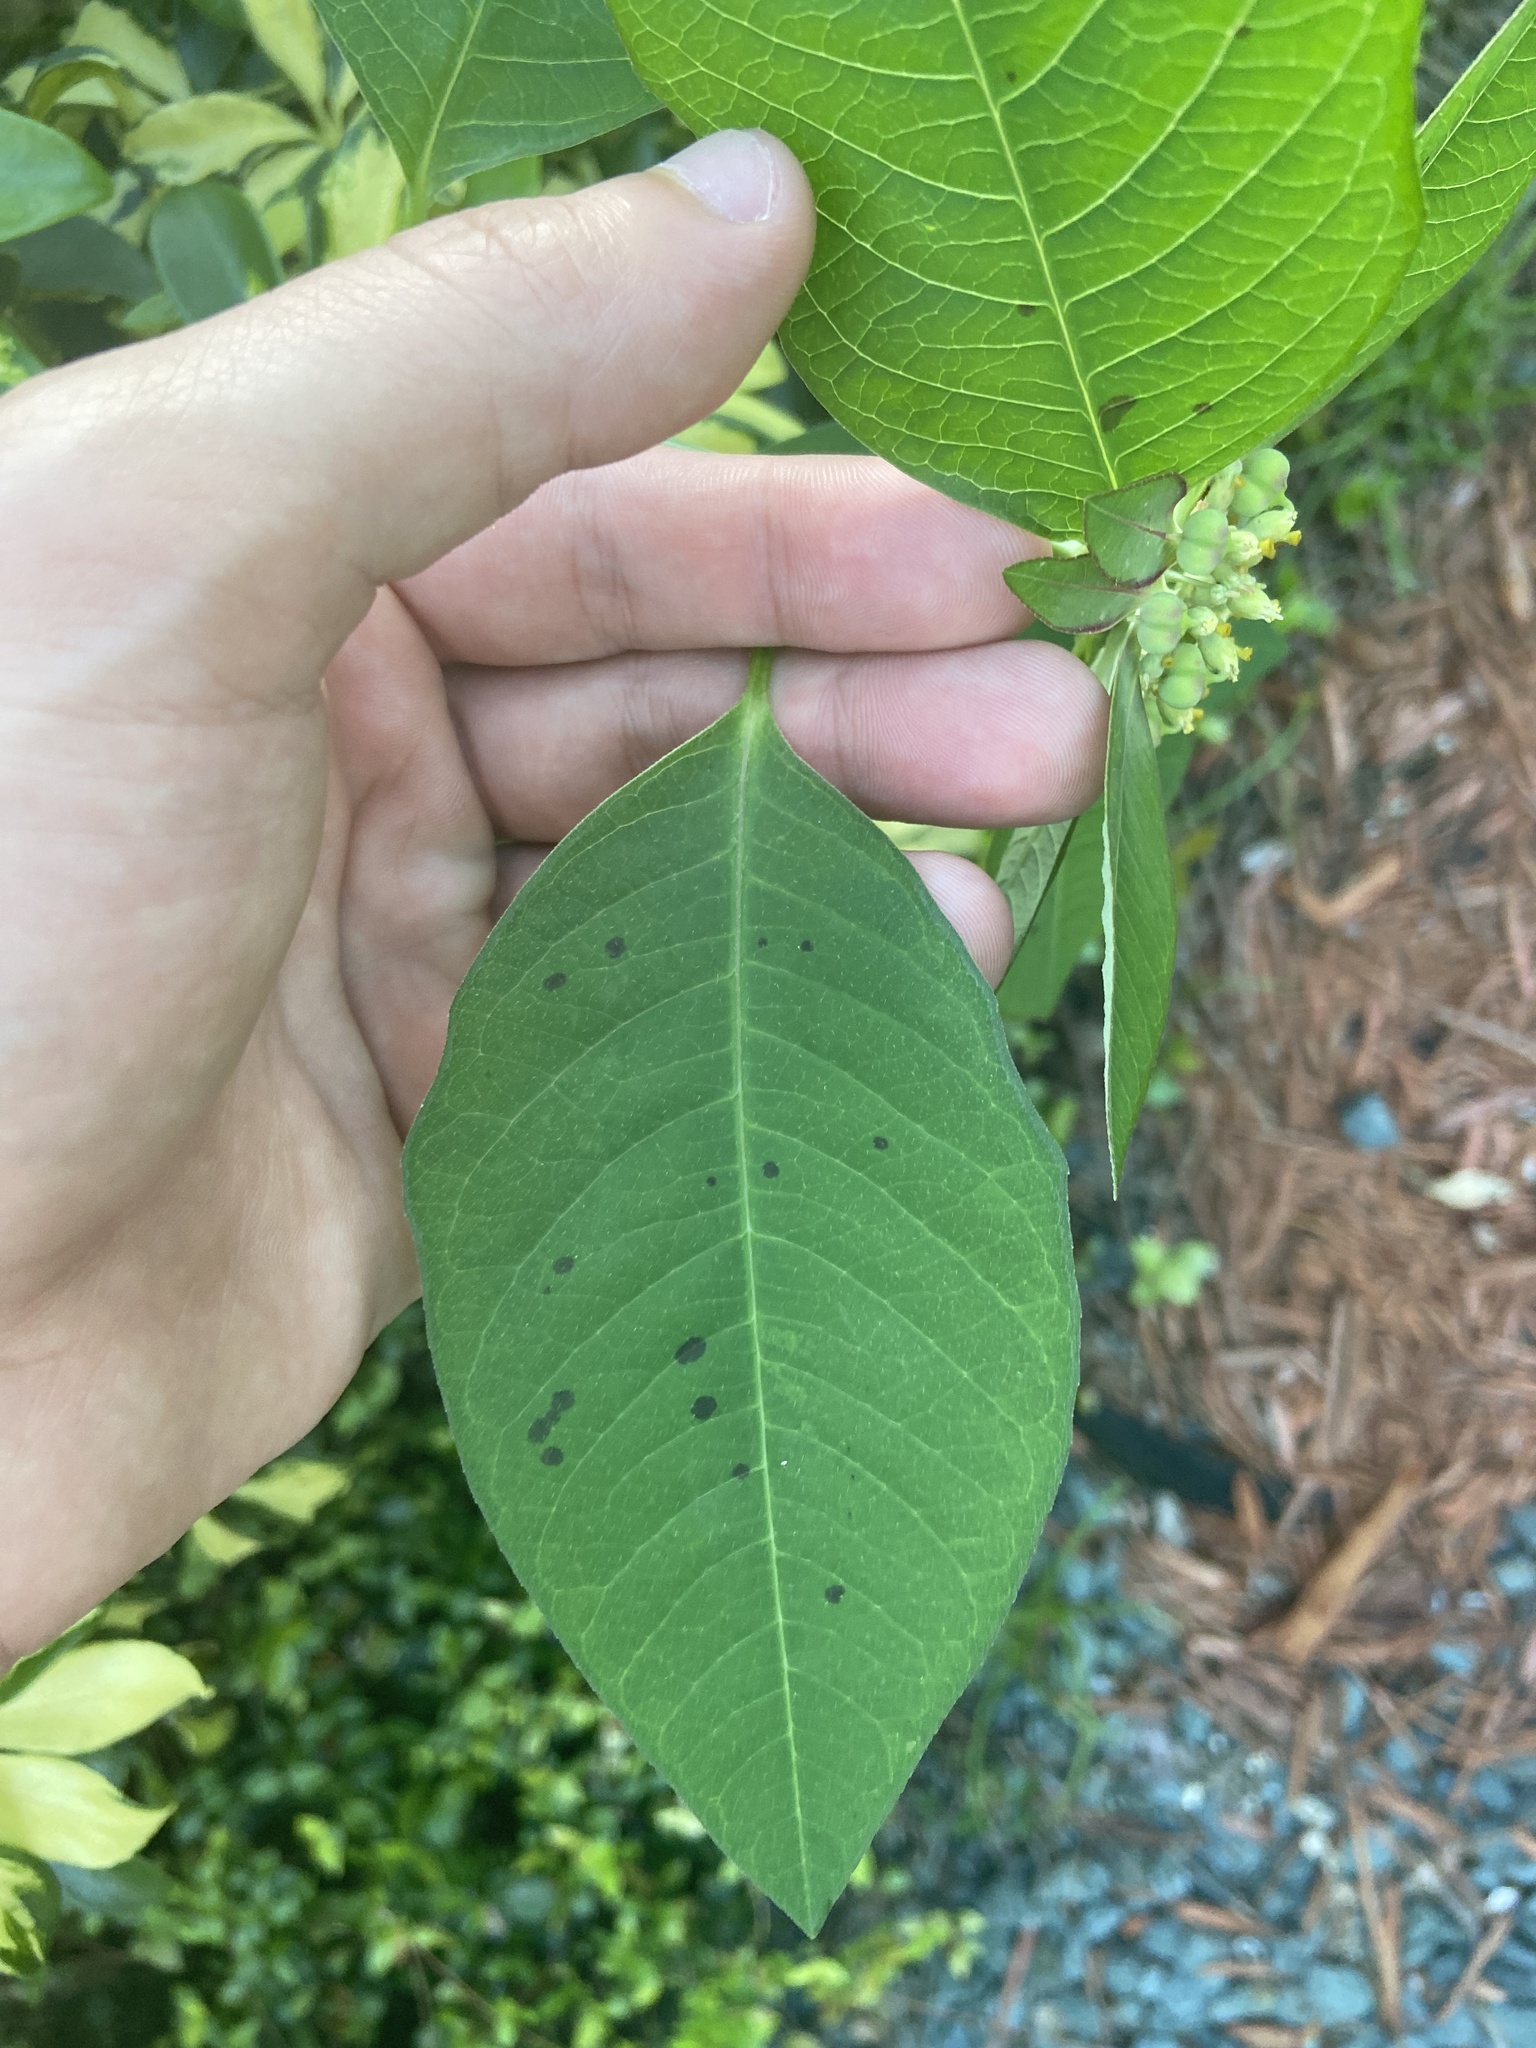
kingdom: Plantae
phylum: Tracheophyta
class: Magnoliopsida
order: Malpighiales
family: Euphorbiaceae
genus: Euphorbia
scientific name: Euphorbia heterophylla
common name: Mexican fireplant
